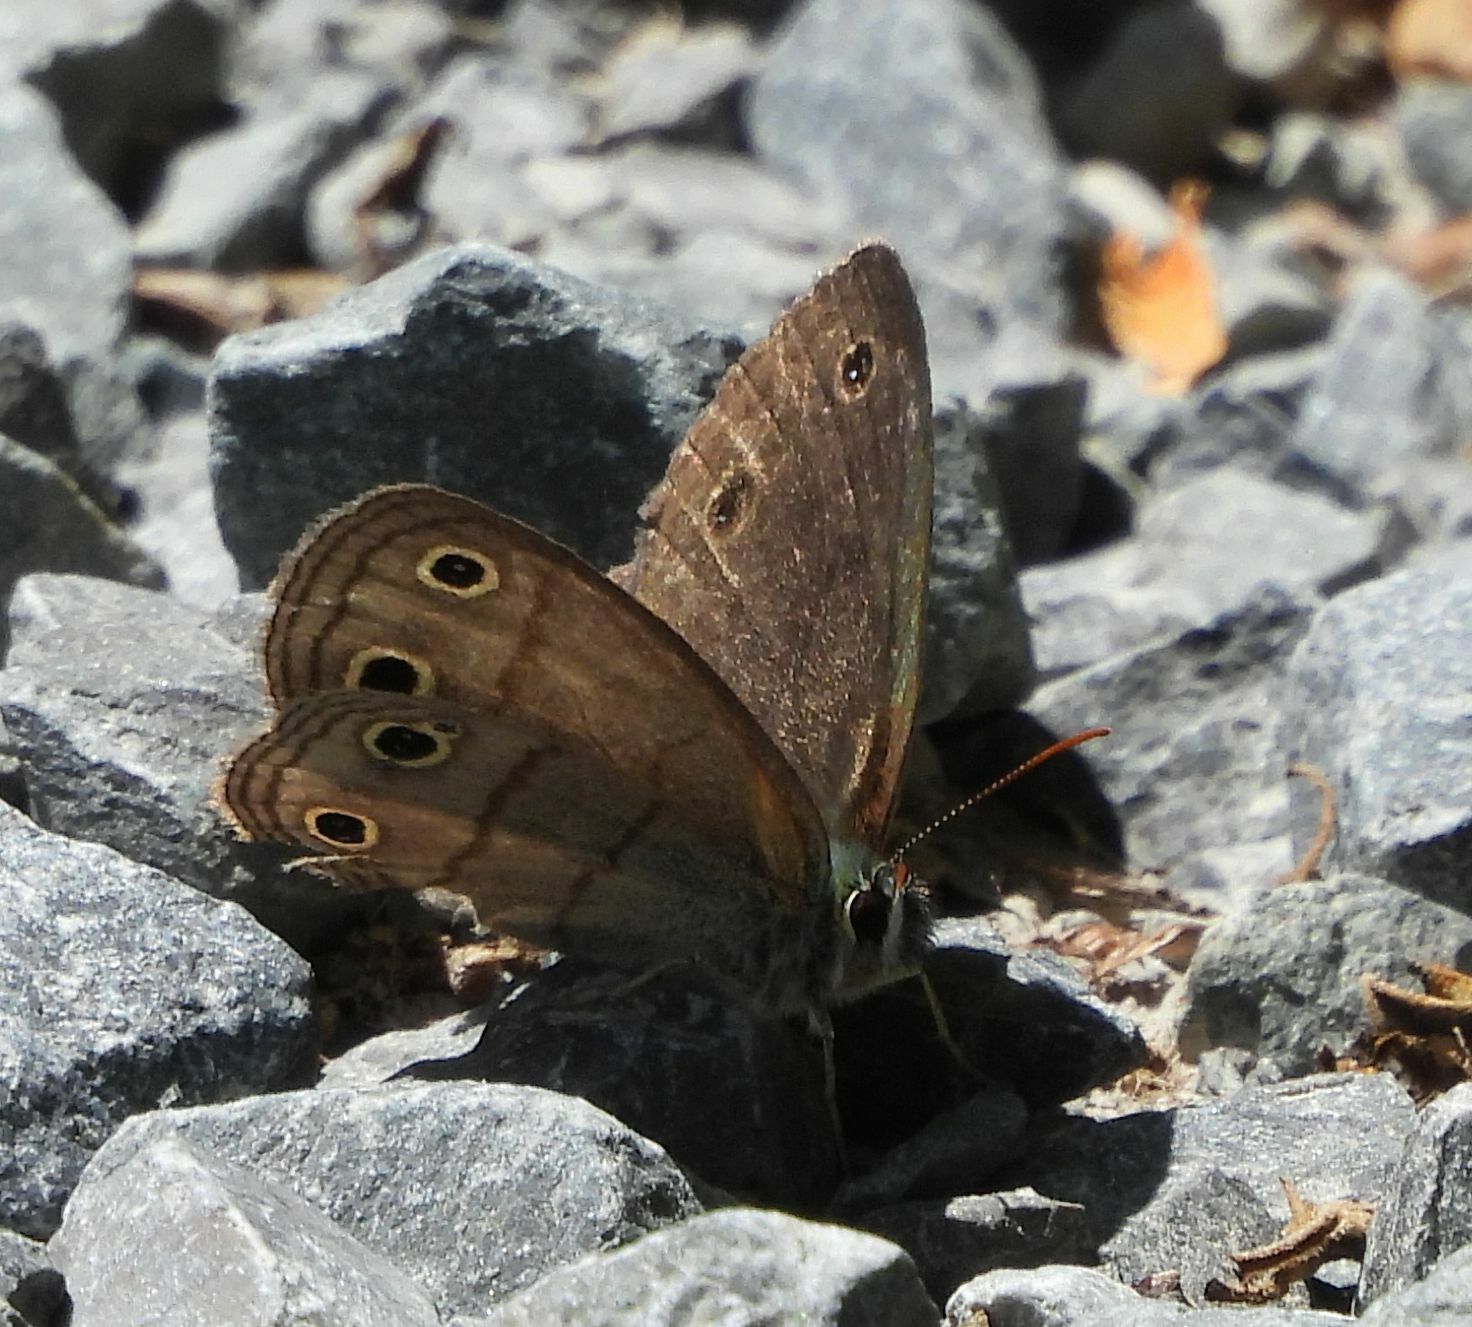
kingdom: Animalia
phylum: Arthropoda
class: Insecta
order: Lepidoptera
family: Nymphalidae
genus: Euptychia
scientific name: Euptychia cymela
